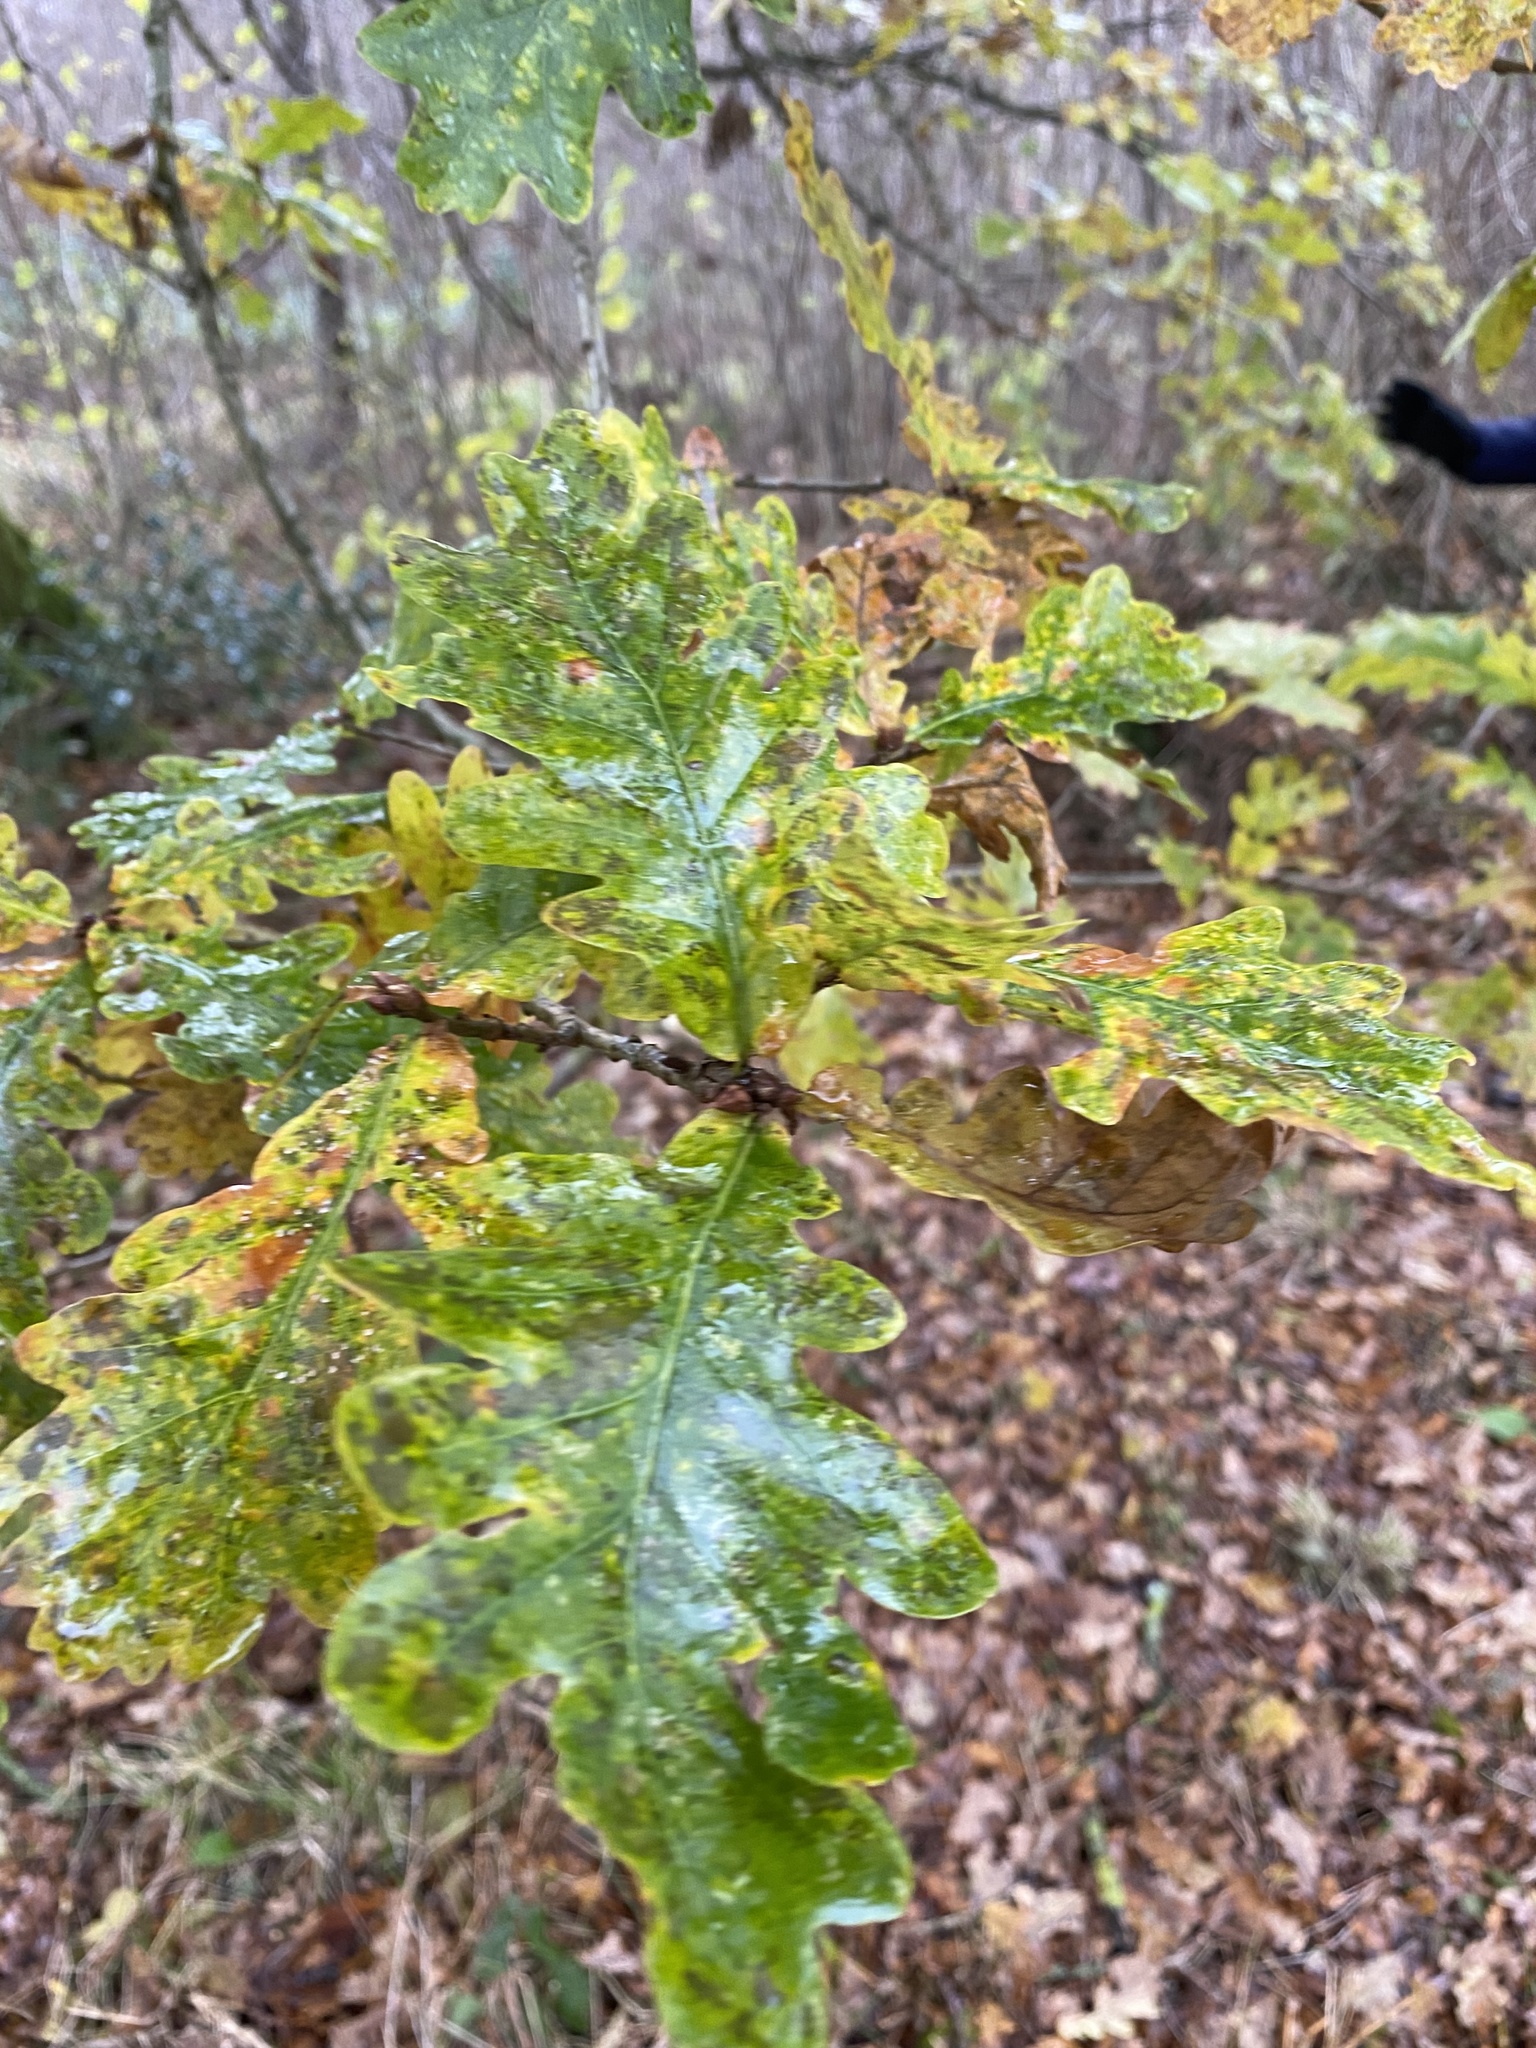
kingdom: Plantae
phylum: Tracheophyta
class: Magnoliopsida
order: Fagales
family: Fagaceae
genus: Quercus
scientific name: Quercus robur
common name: Pedunculate oak
